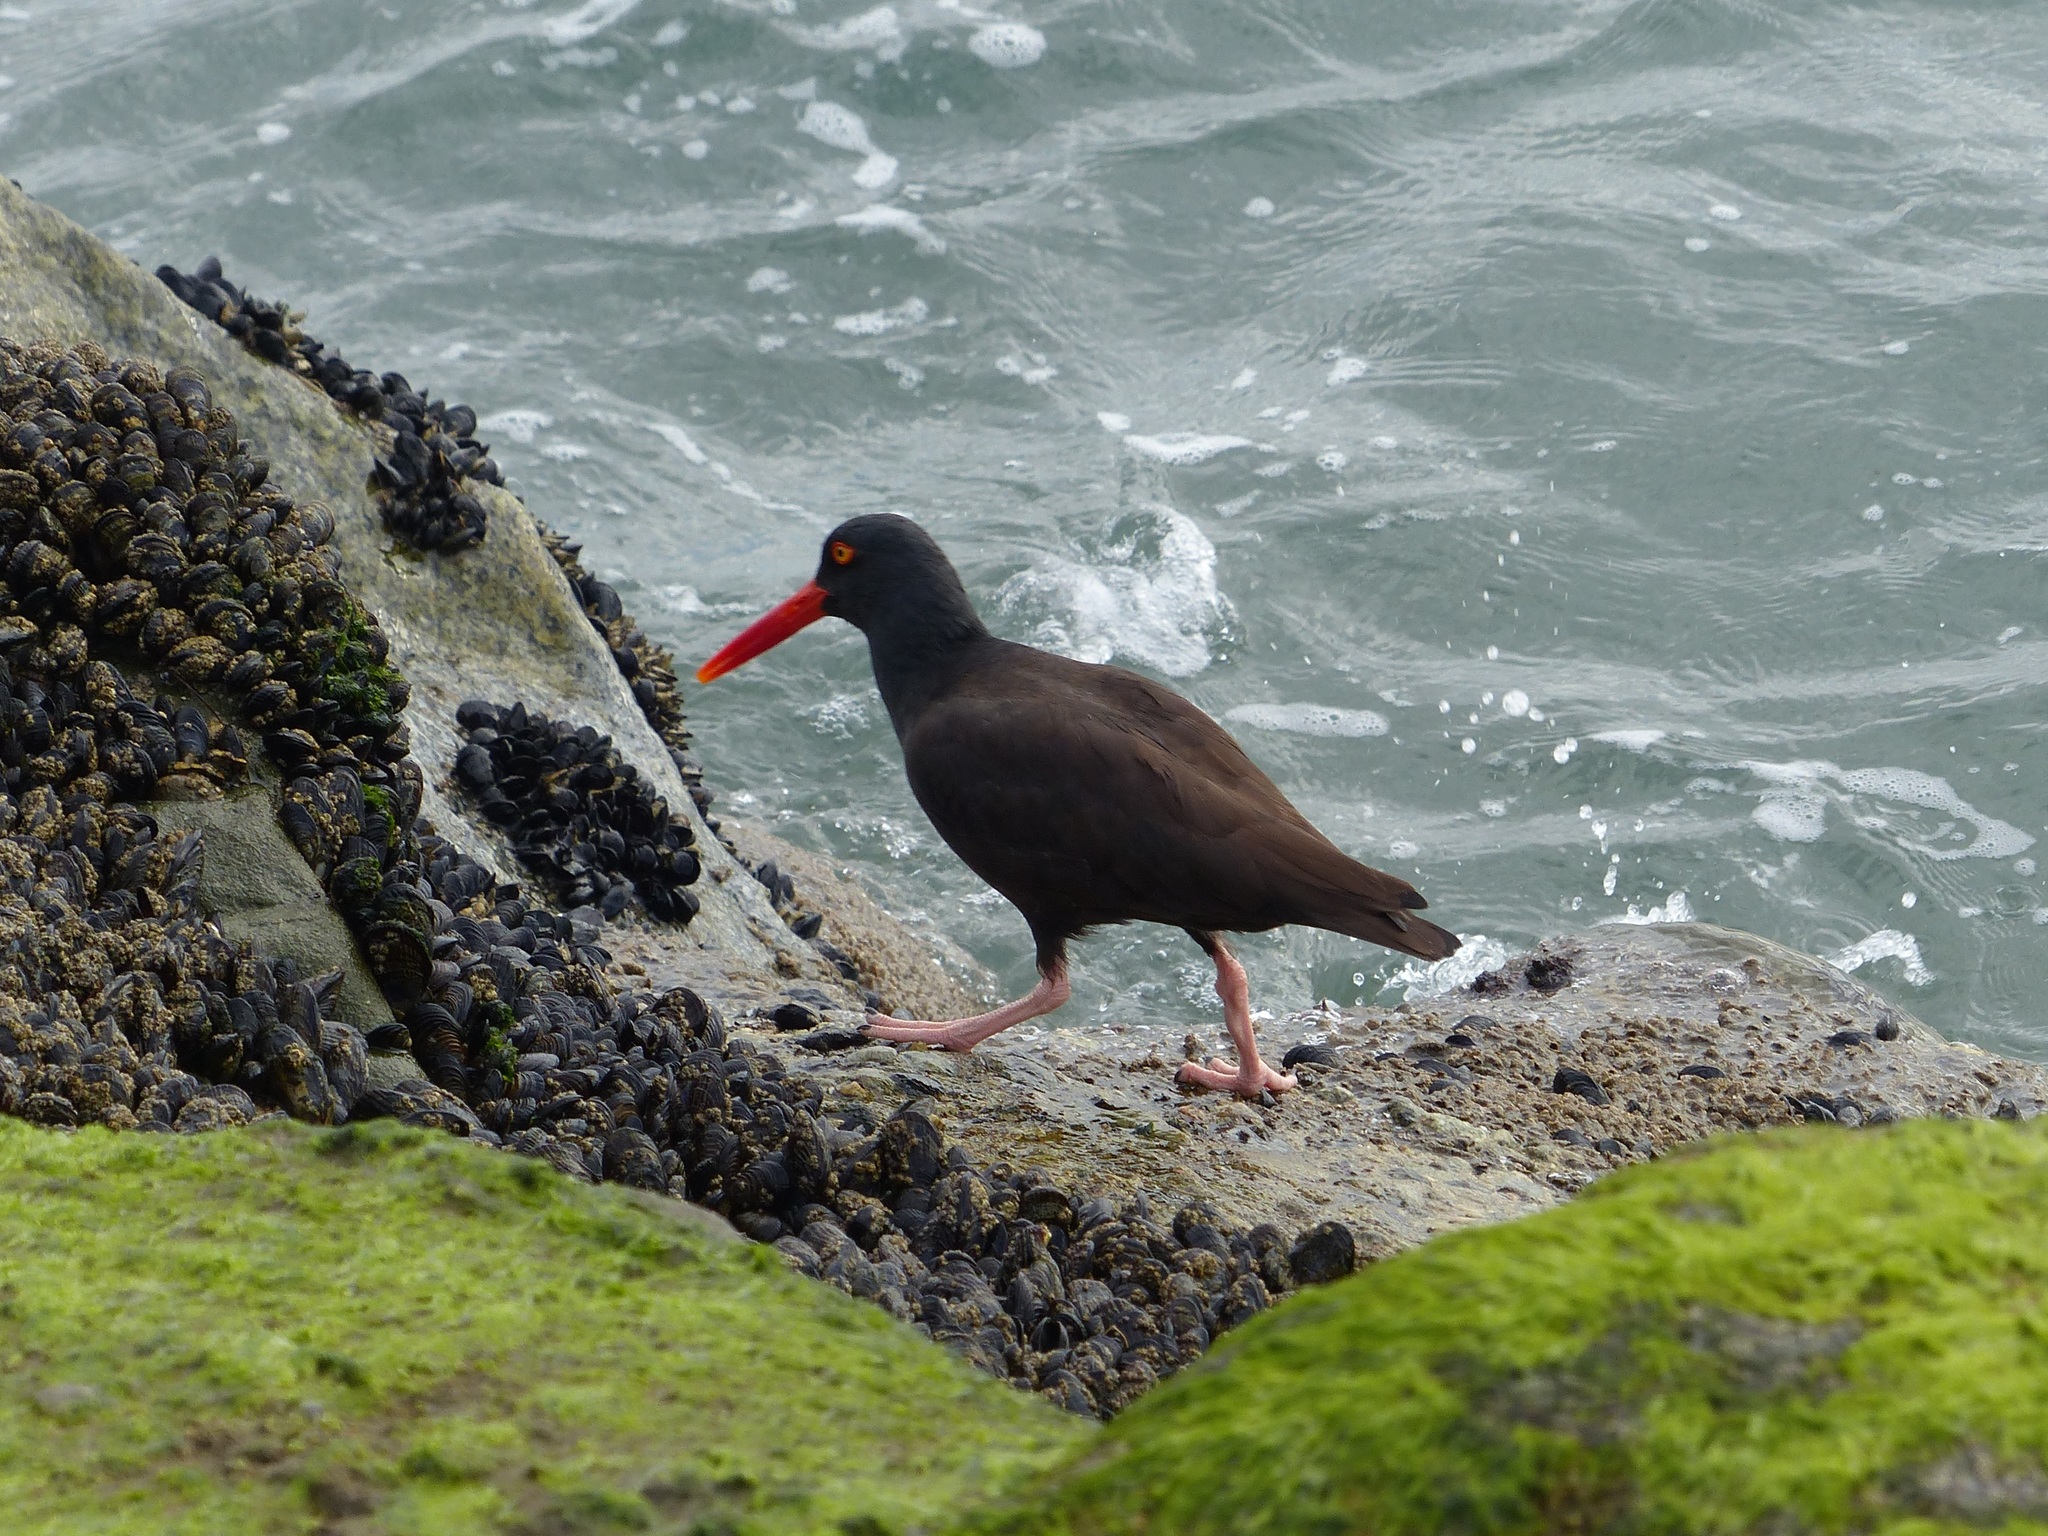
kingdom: Animalia
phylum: Chordata
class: Aves
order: Charadriiformes
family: Haematopodidae
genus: Haematopus
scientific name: Haematopus bachmani
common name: Black oystercatcher
